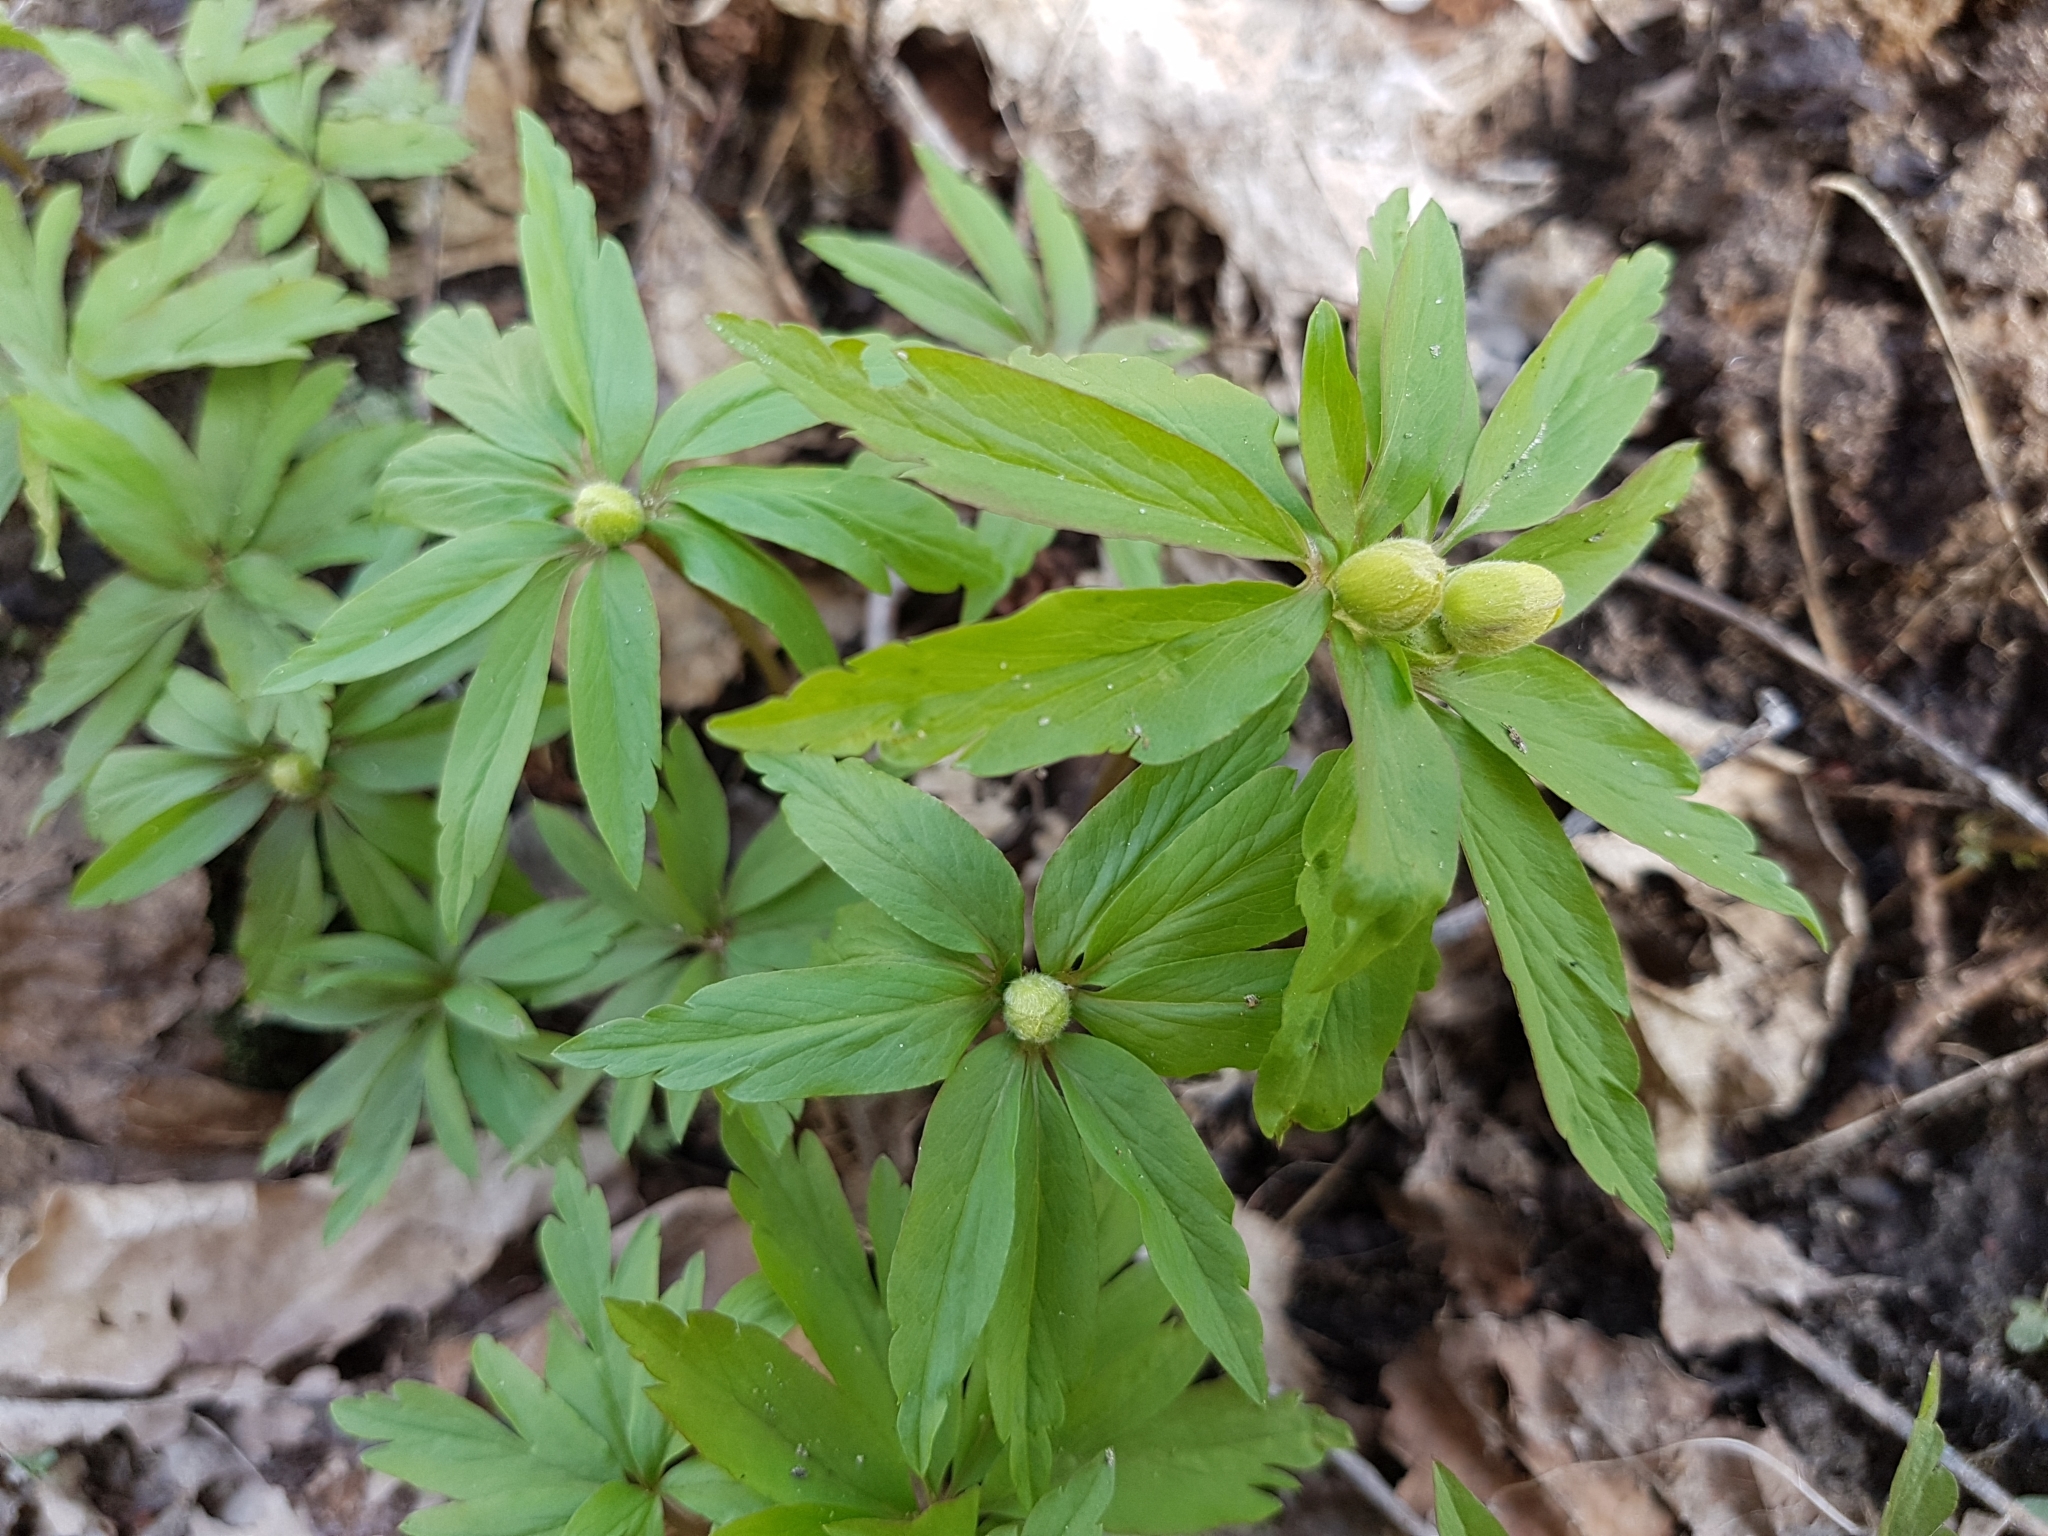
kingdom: Plantae
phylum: Tracheophyta
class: Magnoliopsida
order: Ranunculales
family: Ranunculaceae
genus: Anemone
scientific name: Anemone ranunculoides
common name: Yellow anemone
